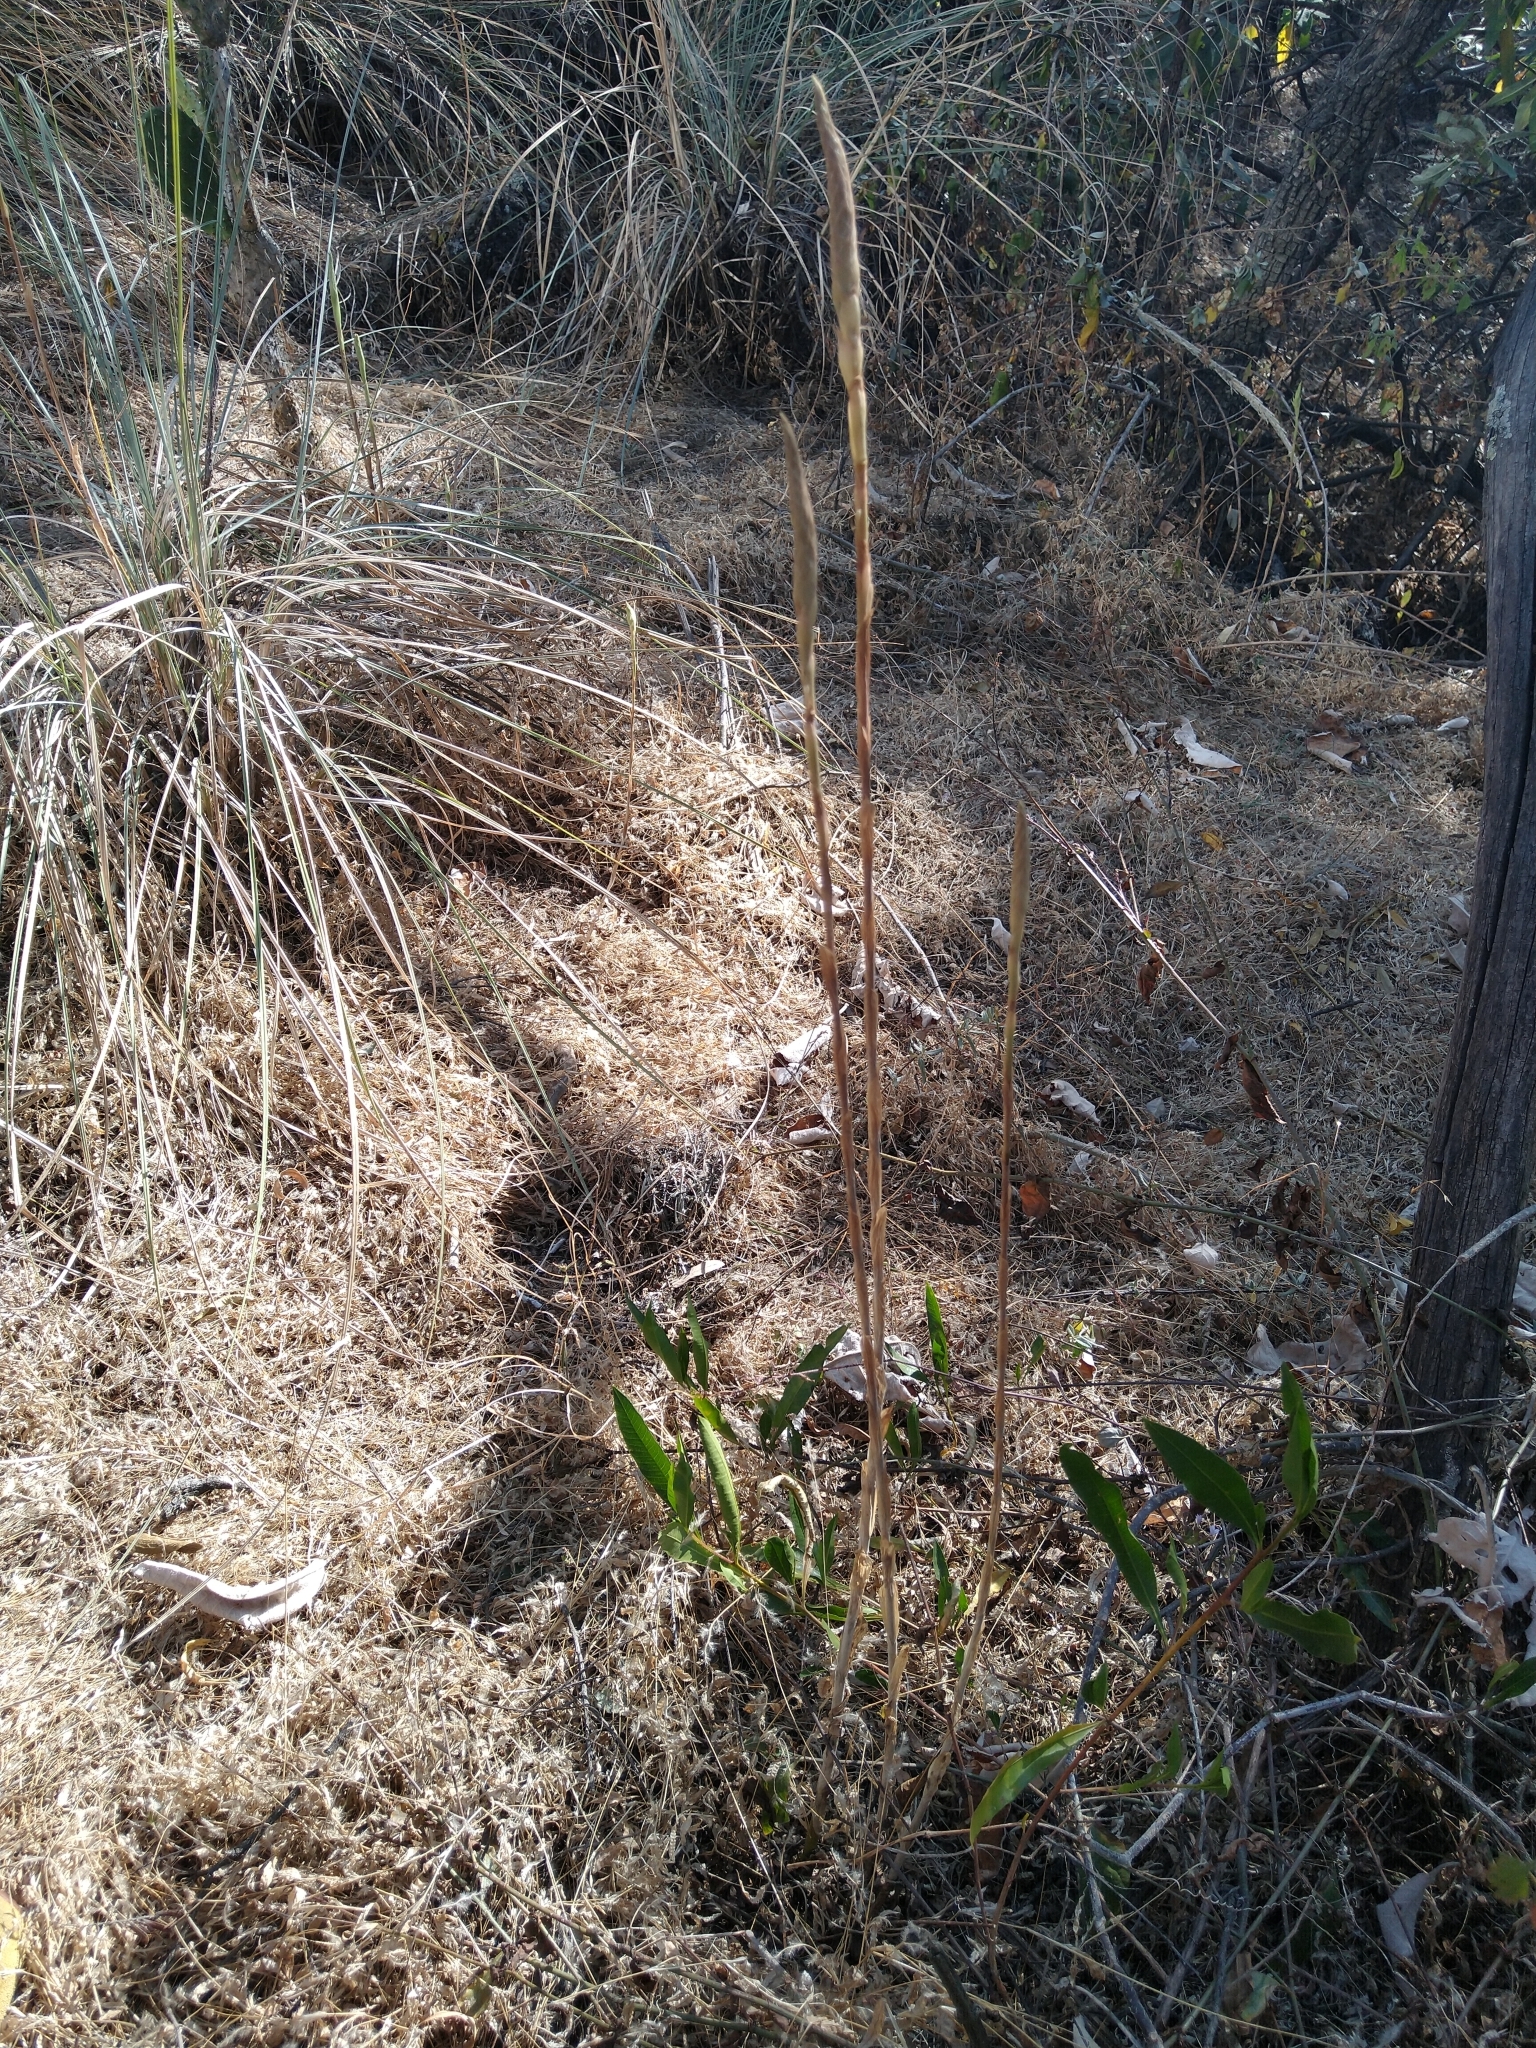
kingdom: Plantae
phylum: Tracheophyta
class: Liliopsida
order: Asparagales
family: Orchidaceae
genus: Aulosepalum
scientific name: Aulosepalum pyramidale
